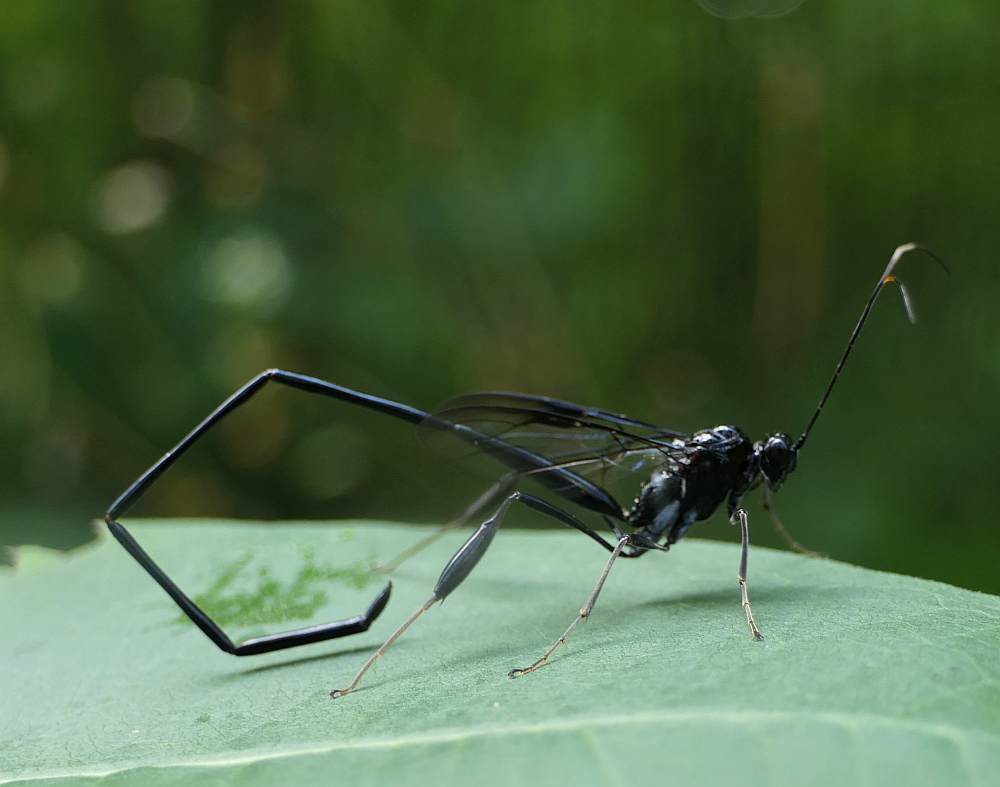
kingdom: Animalia
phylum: Arthropoda
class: Insecta
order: Hymenoptera
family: Pelecinidae
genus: Pelecinus
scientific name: Pelecinus polyturator
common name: American pelecinid wasp
